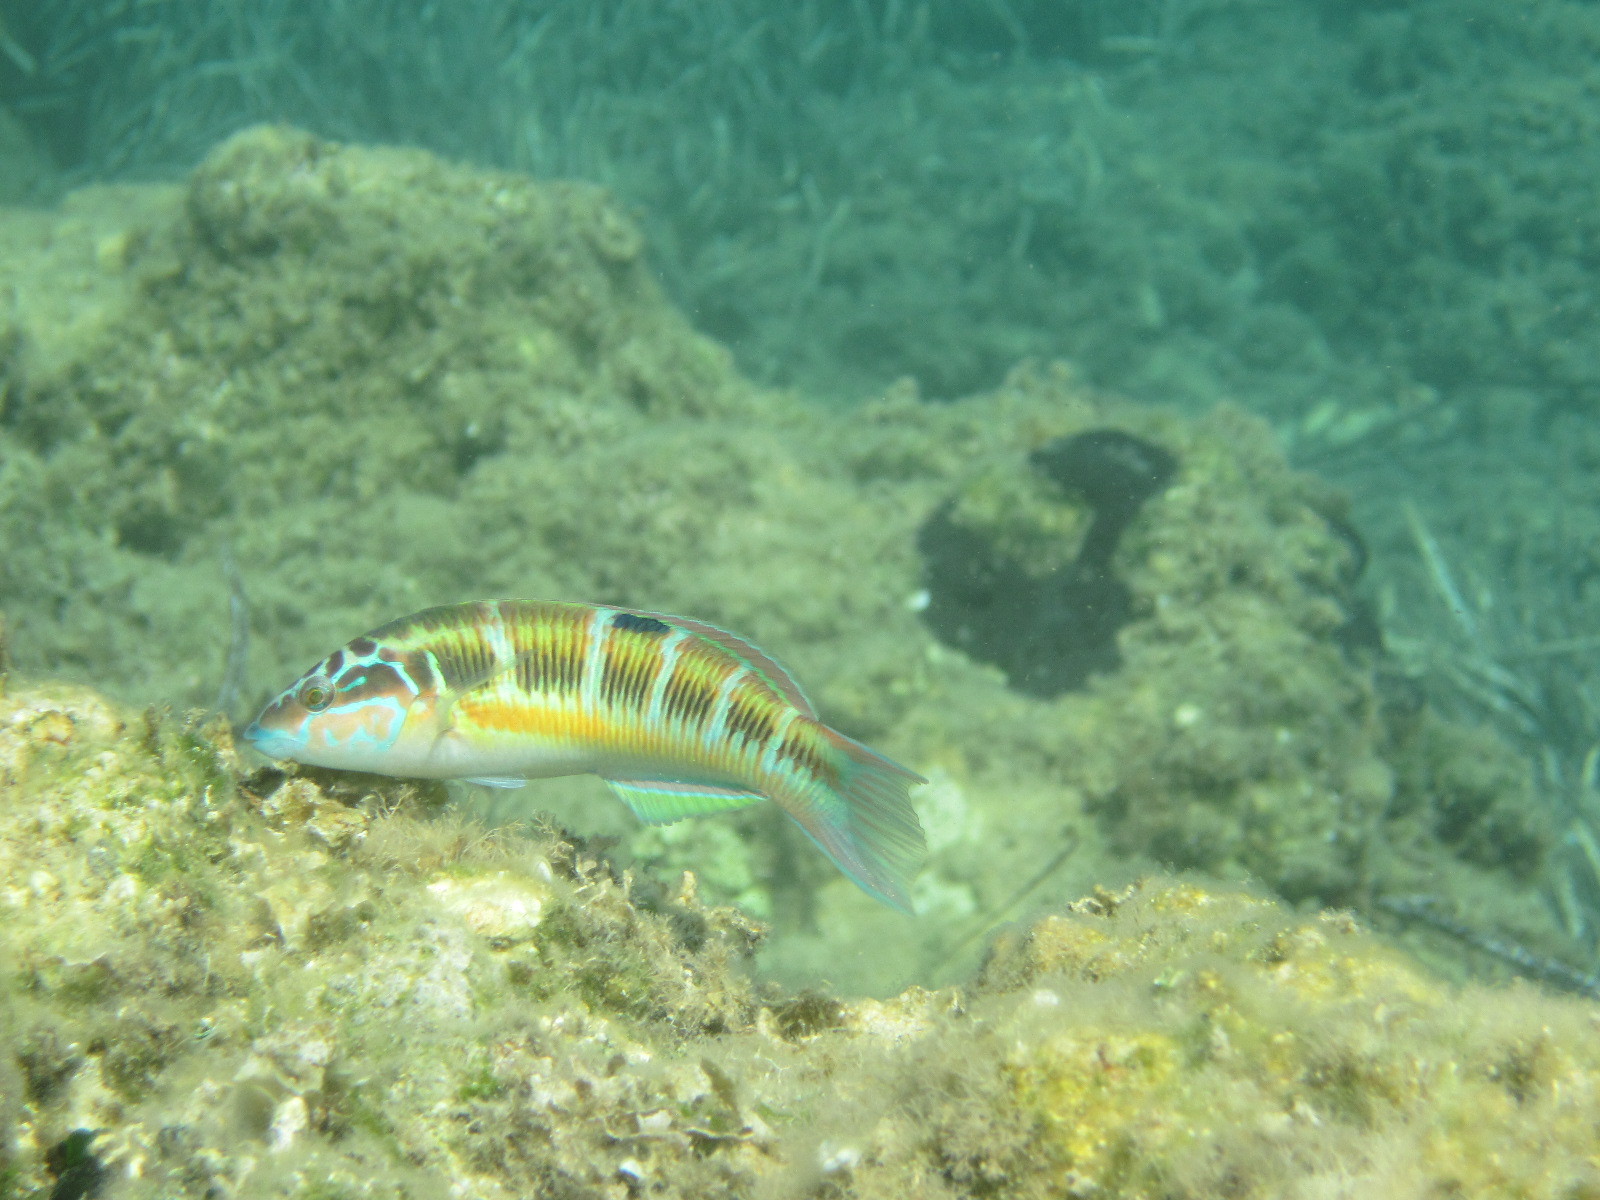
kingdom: Animalia
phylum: Chordata
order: Perciformes
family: Labridae
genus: Thalassoma
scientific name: Thalassoma pavo
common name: Ornate wrasse
